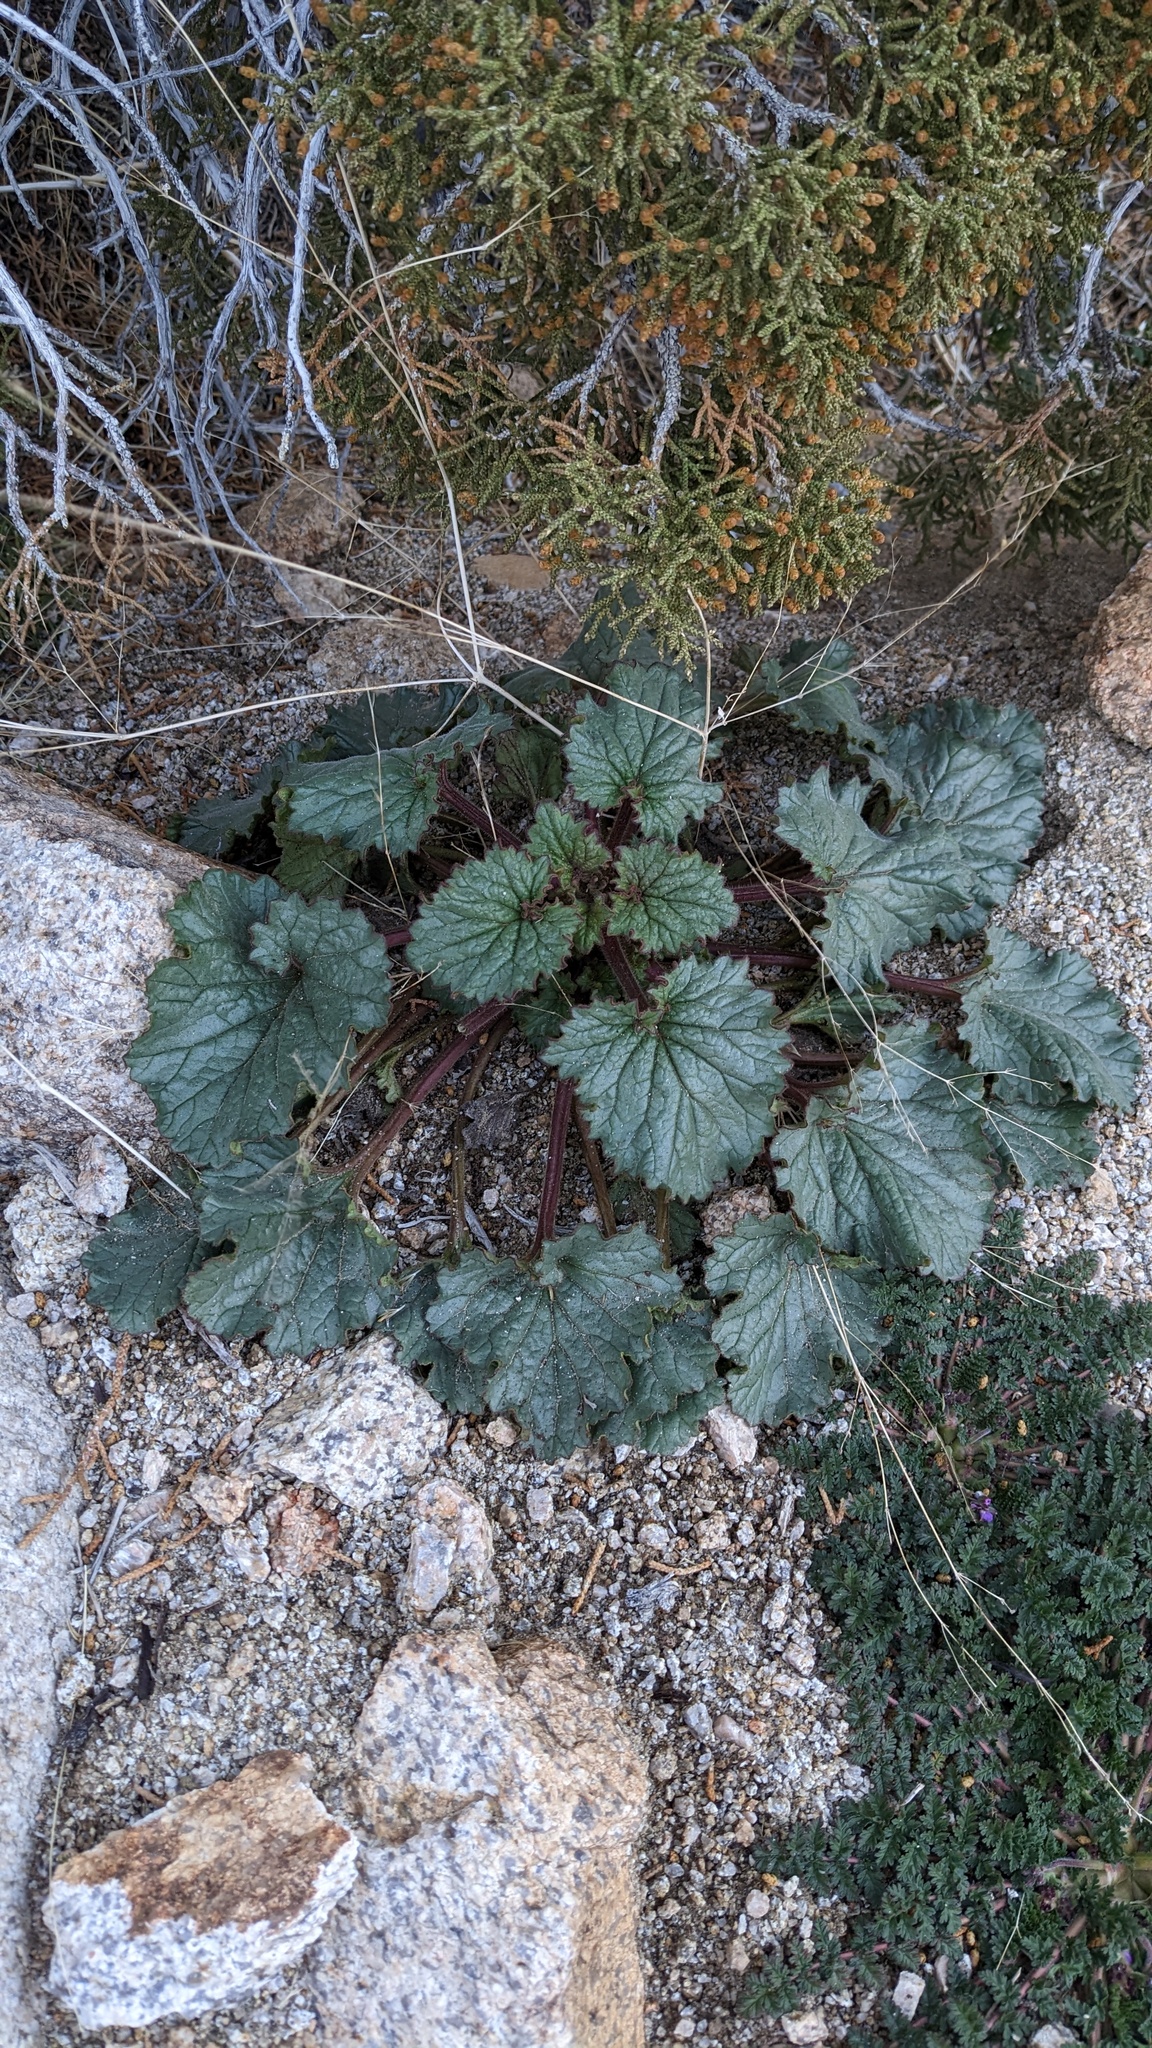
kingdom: Plantae
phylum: Tracheophyta
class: Magnoliopsida
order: Boraginales
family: Hydrophyllaceae
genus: Phacelia
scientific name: Phacelia campanularia
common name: California bluebell
